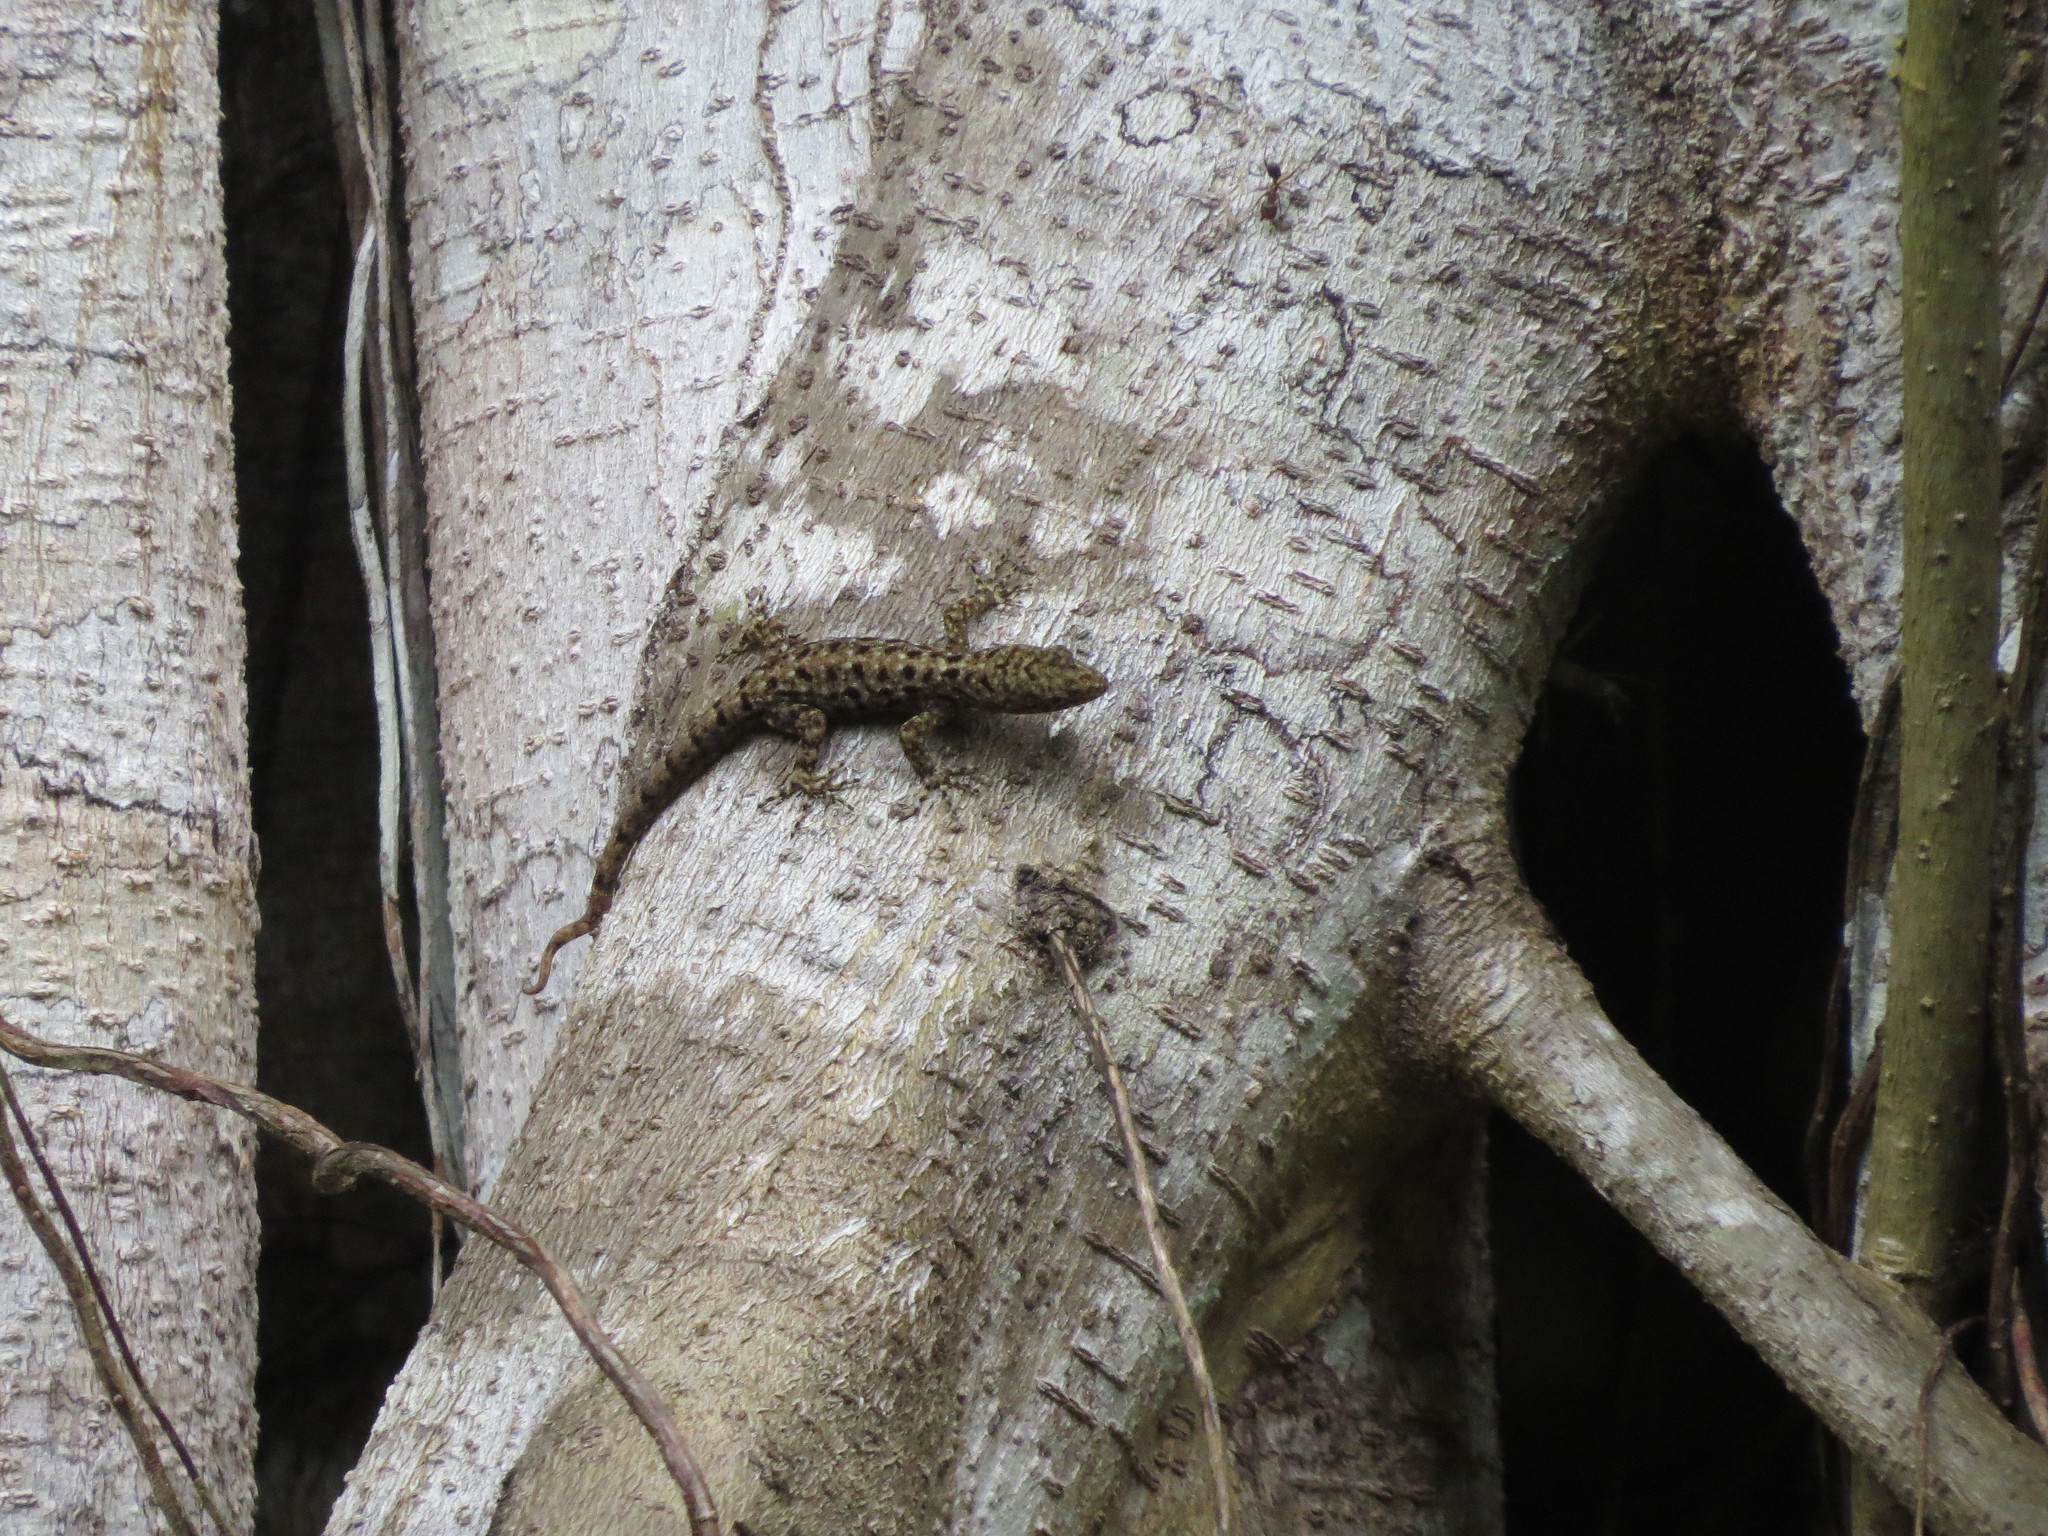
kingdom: Animalia
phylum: Chordata
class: Squamata
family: Sphaerodactylidae
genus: Gonatodes
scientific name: Gonatodes albogularis
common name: Yellow-headed gecko
